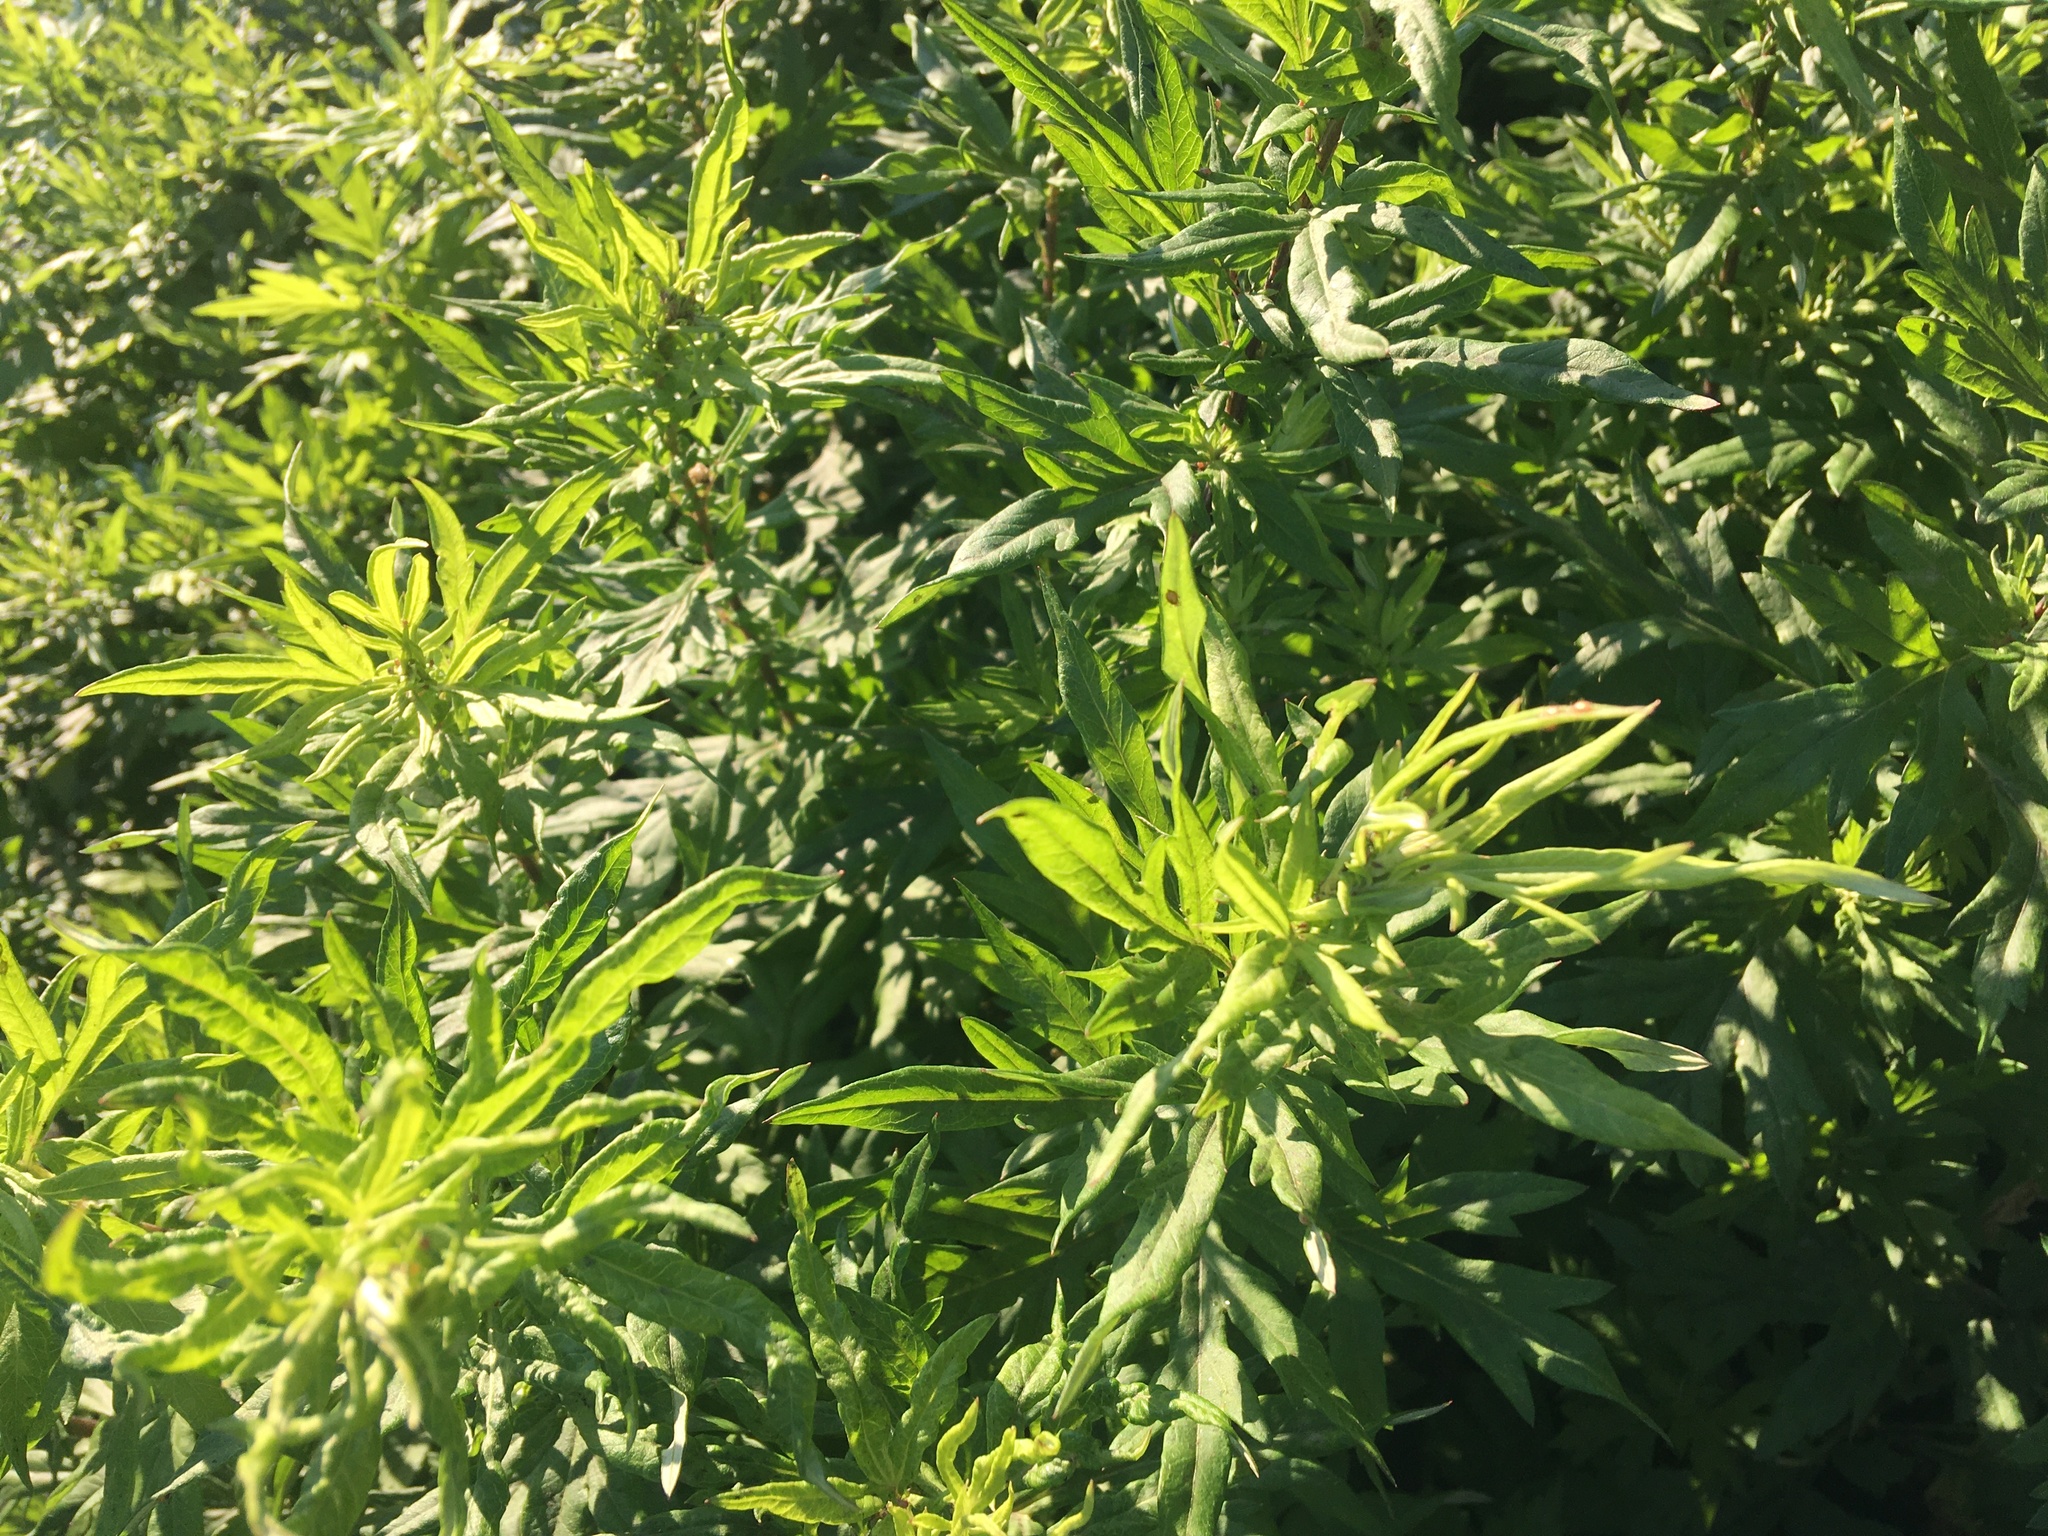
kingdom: Plantae
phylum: Tracheophyta
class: Magnoliopsida
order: Asterales
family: Asteraceae
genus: Artemisia
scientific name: Artemisia vulgaris
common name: Mugwort
